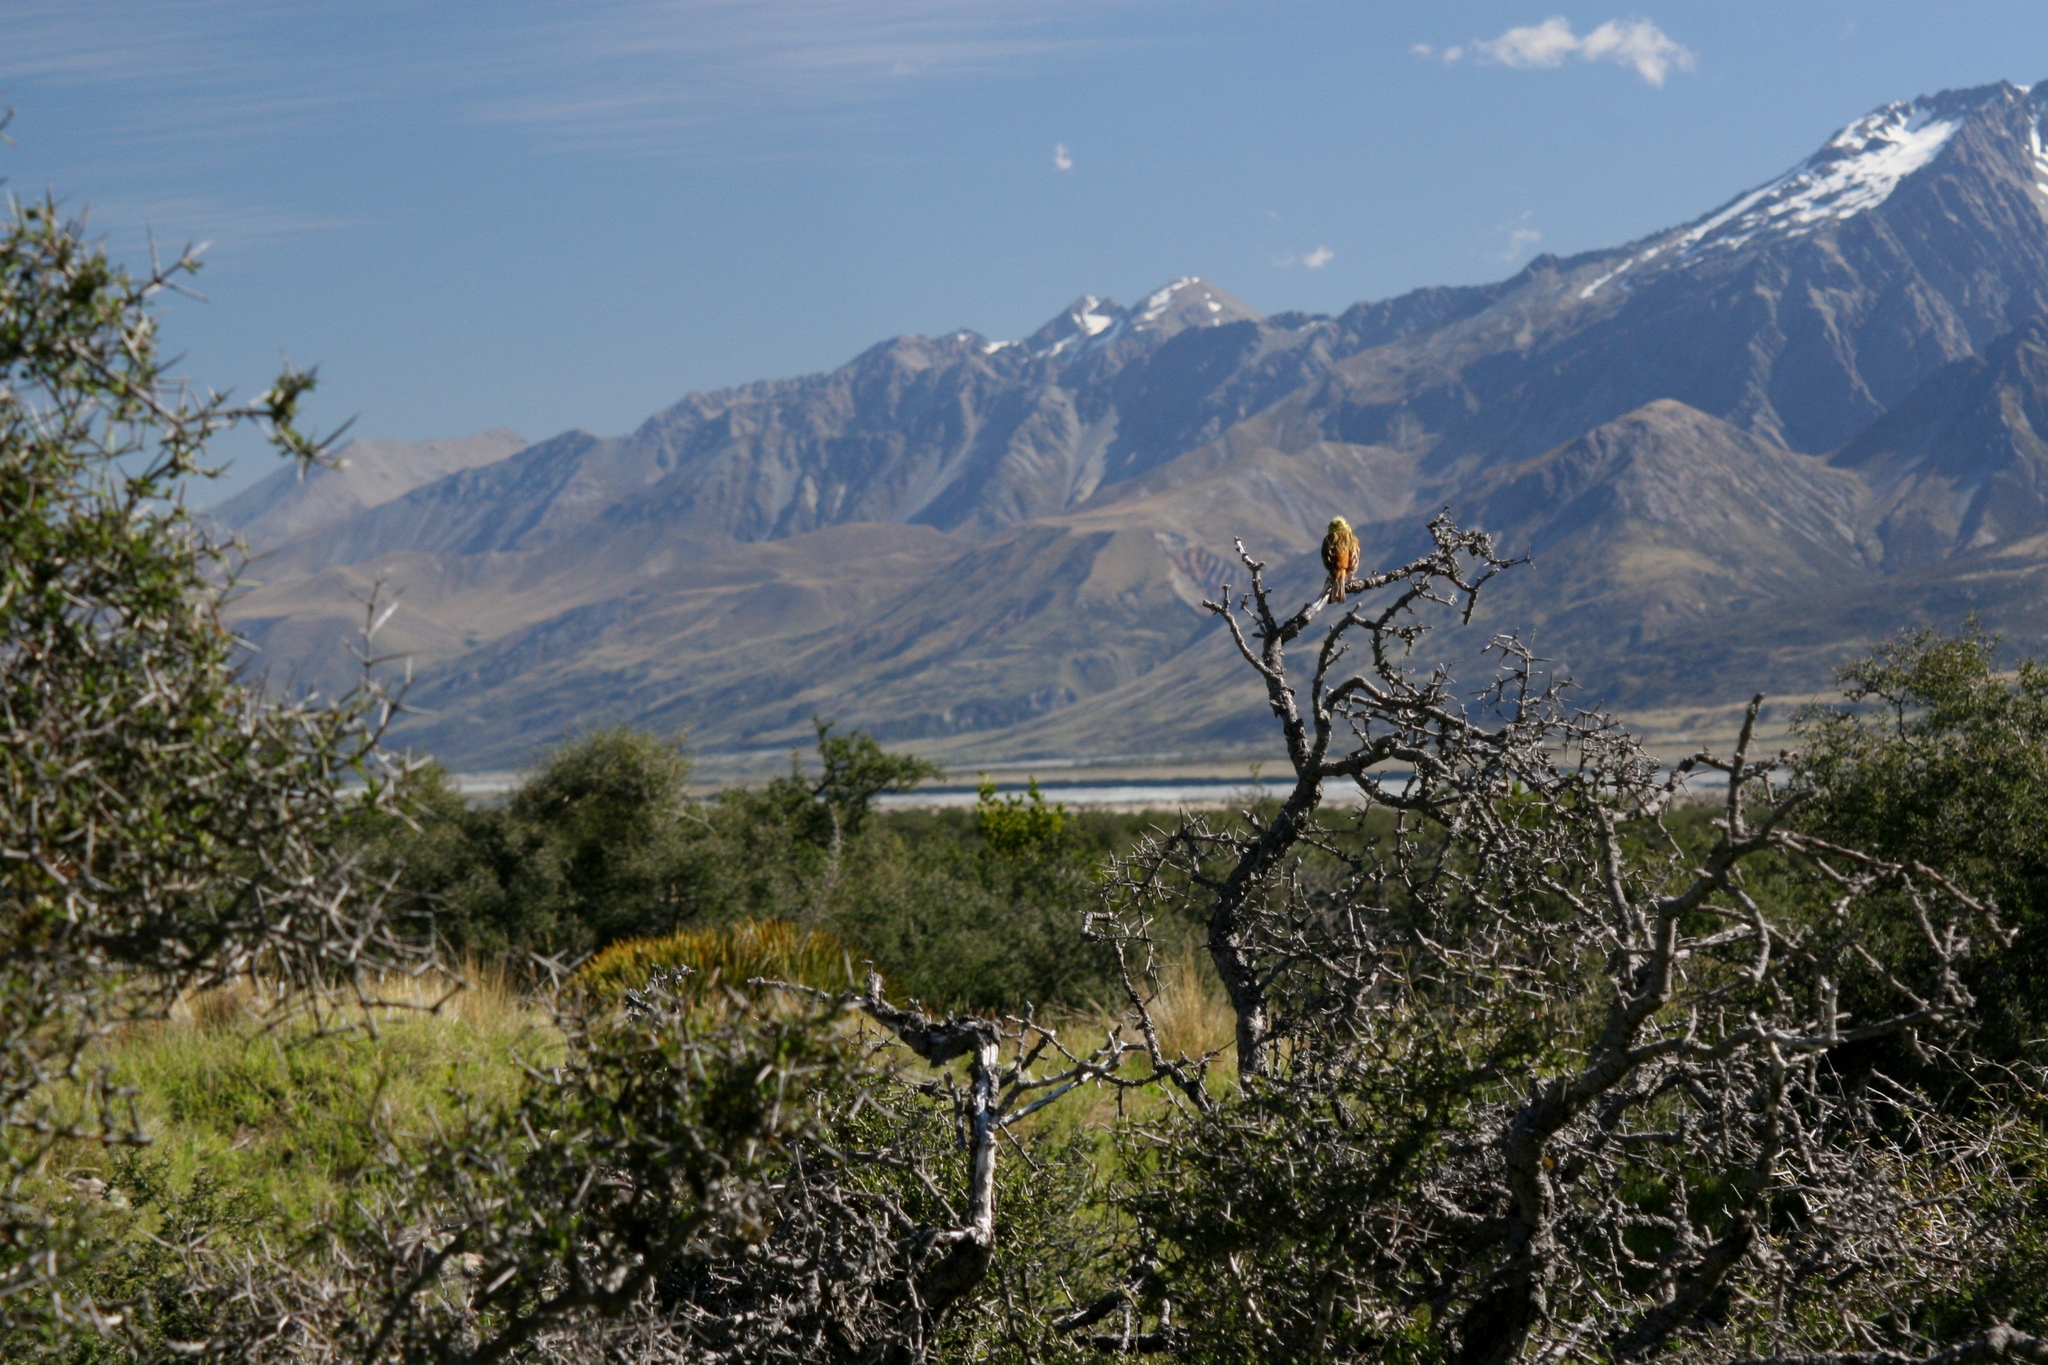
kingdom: Animalia
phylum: Chordata
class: Aves
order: Passeriformes
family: Emberizidae
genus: Emberiza
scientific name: Emberiza citrinella
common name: Yellowhammer
